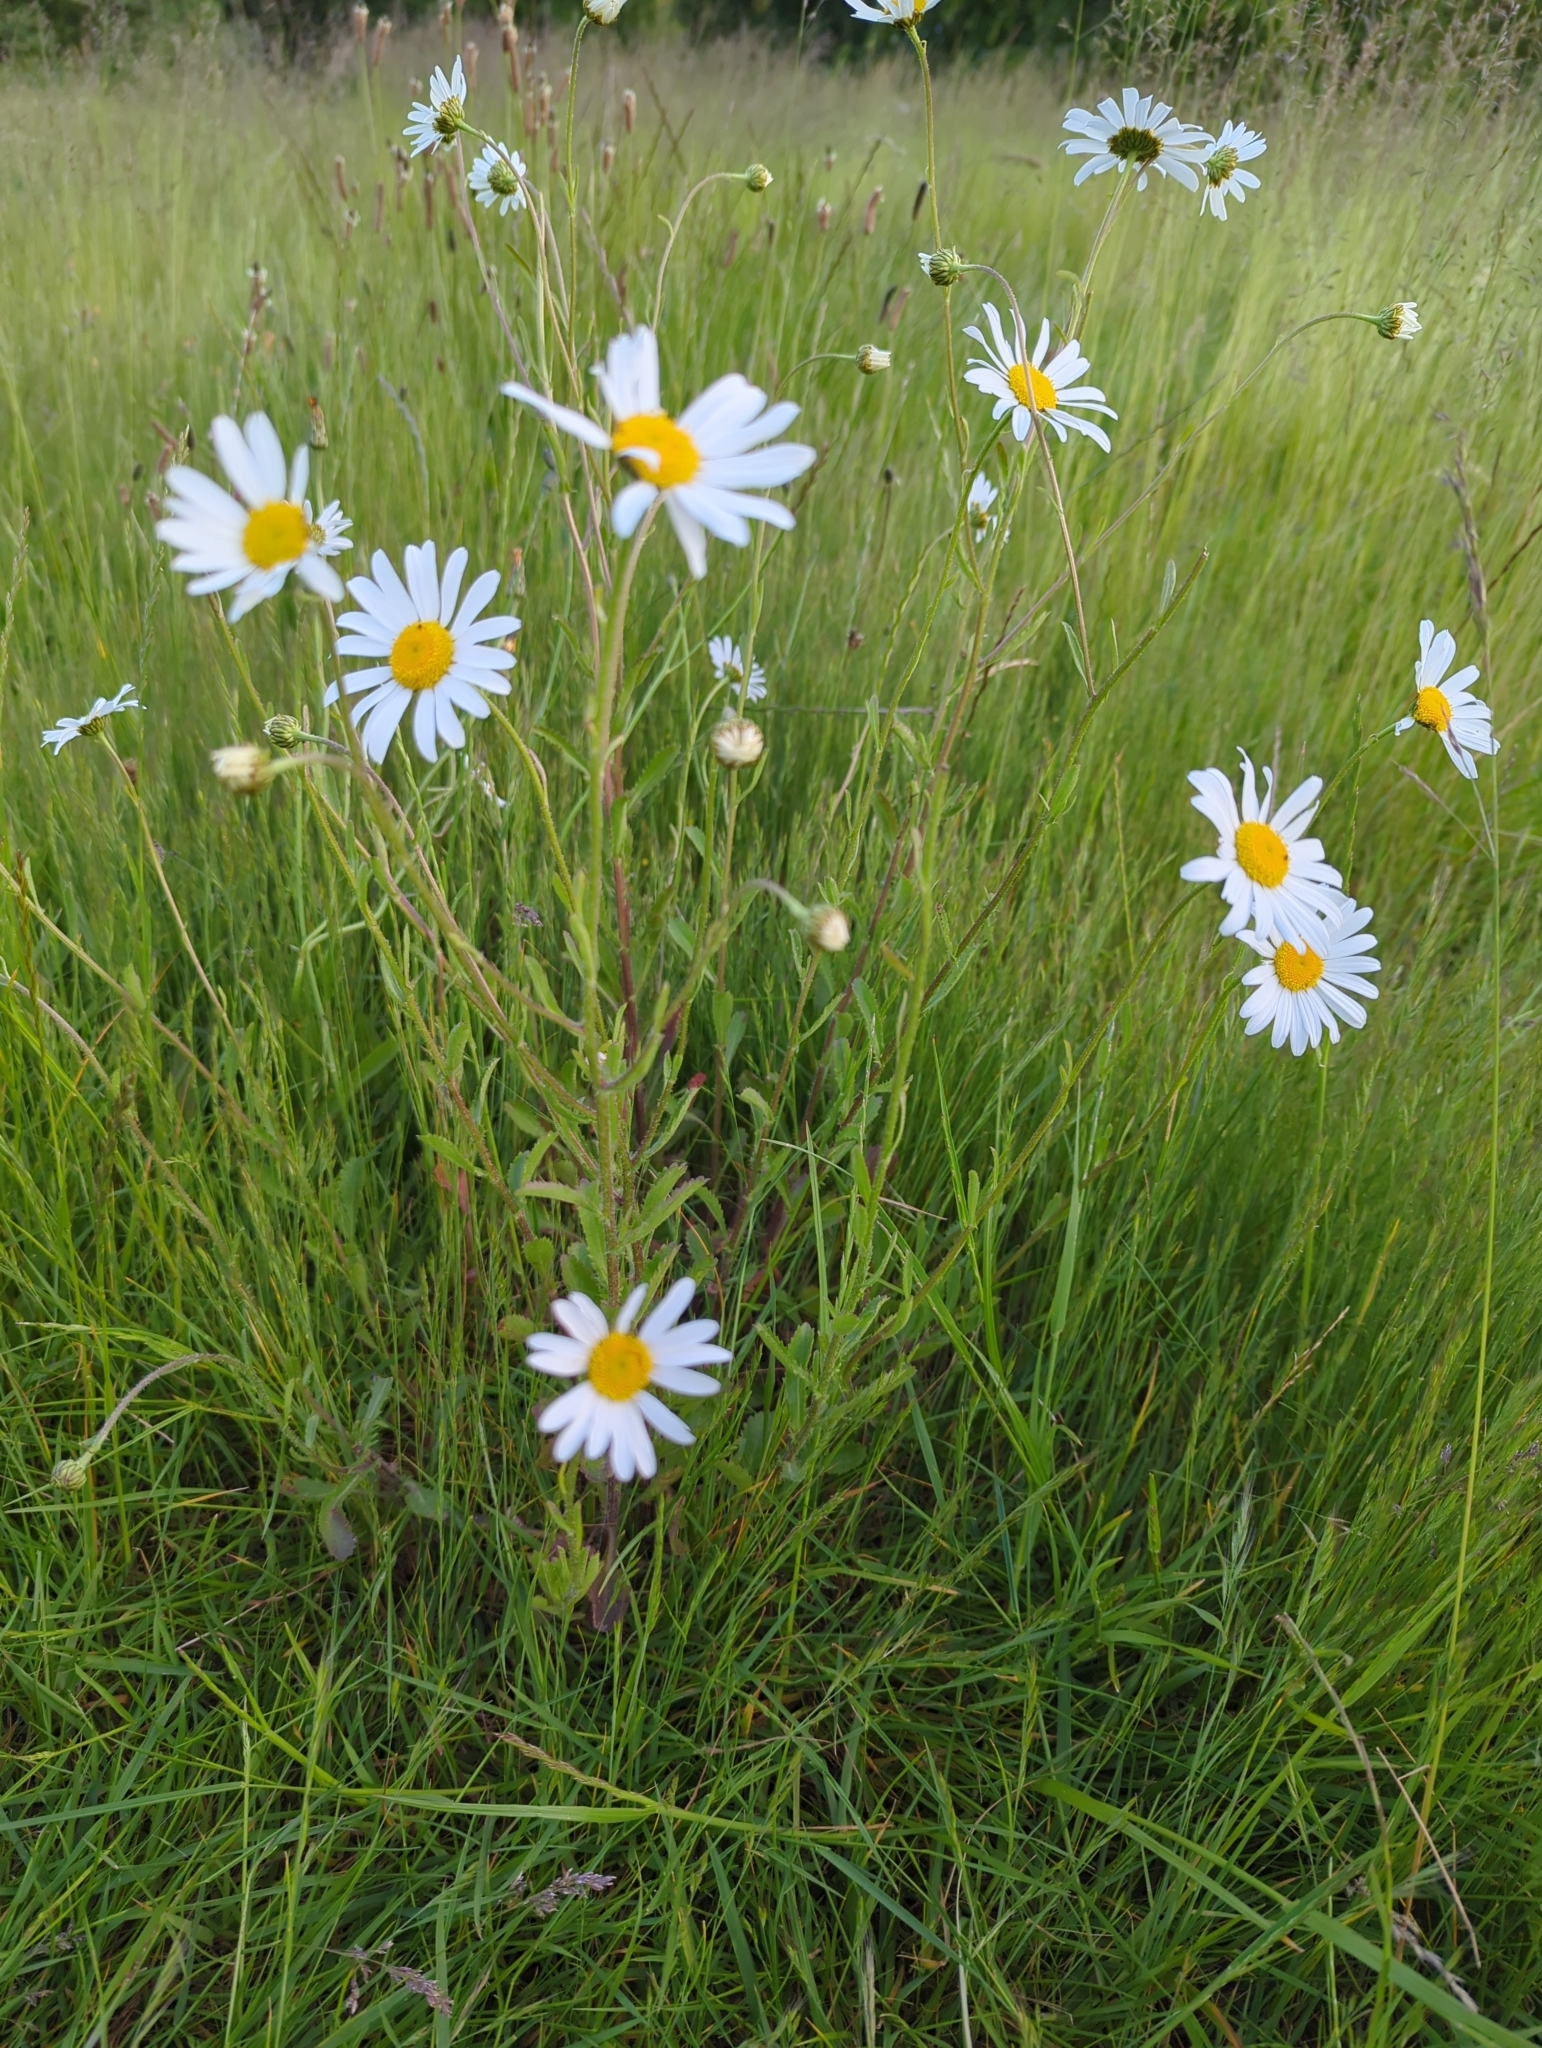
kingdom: Plantae
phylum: Tracheophyta
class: Magnoliopsida
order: Asterales
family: Asteraceae
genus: Leucanthemum
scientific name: Leucanthemum vulgare
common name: Oxeye daisy
